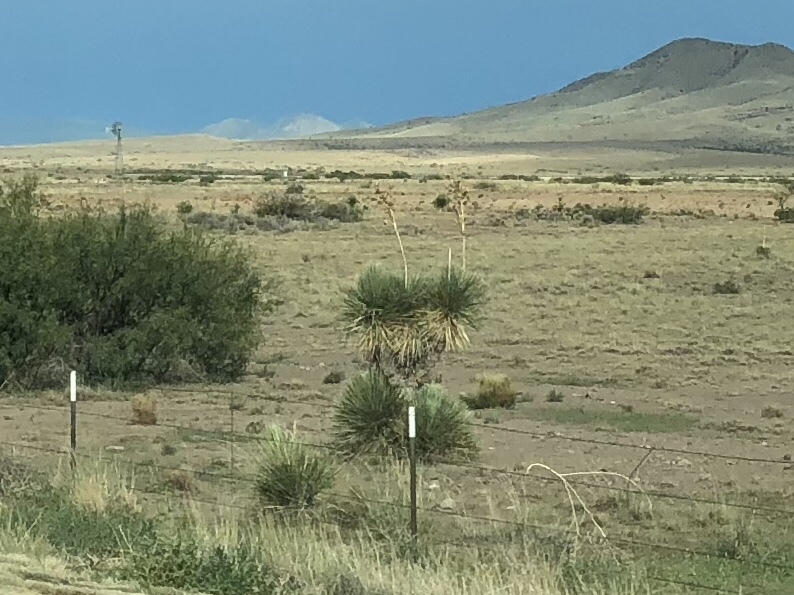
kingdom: Plantae
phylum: Tracheophyta
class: Liliopsida
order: Asparagales
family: Asparagaceae
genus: Yucca
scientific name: Yucca elata
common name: Palmella
